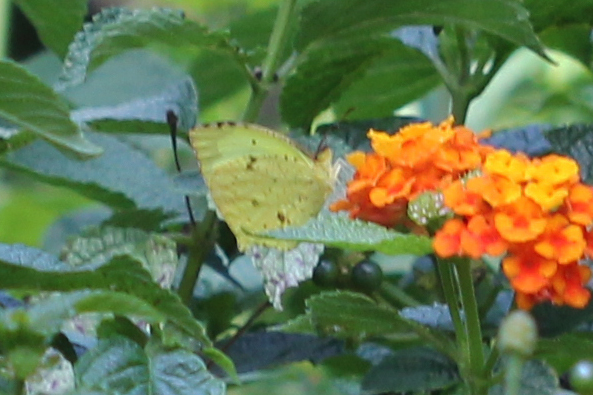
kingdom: Animalia
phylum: Arthropoda
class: Insecta
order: Lepidoptera
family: Pieridae
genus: Abaeis
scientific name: Abaeis salome
